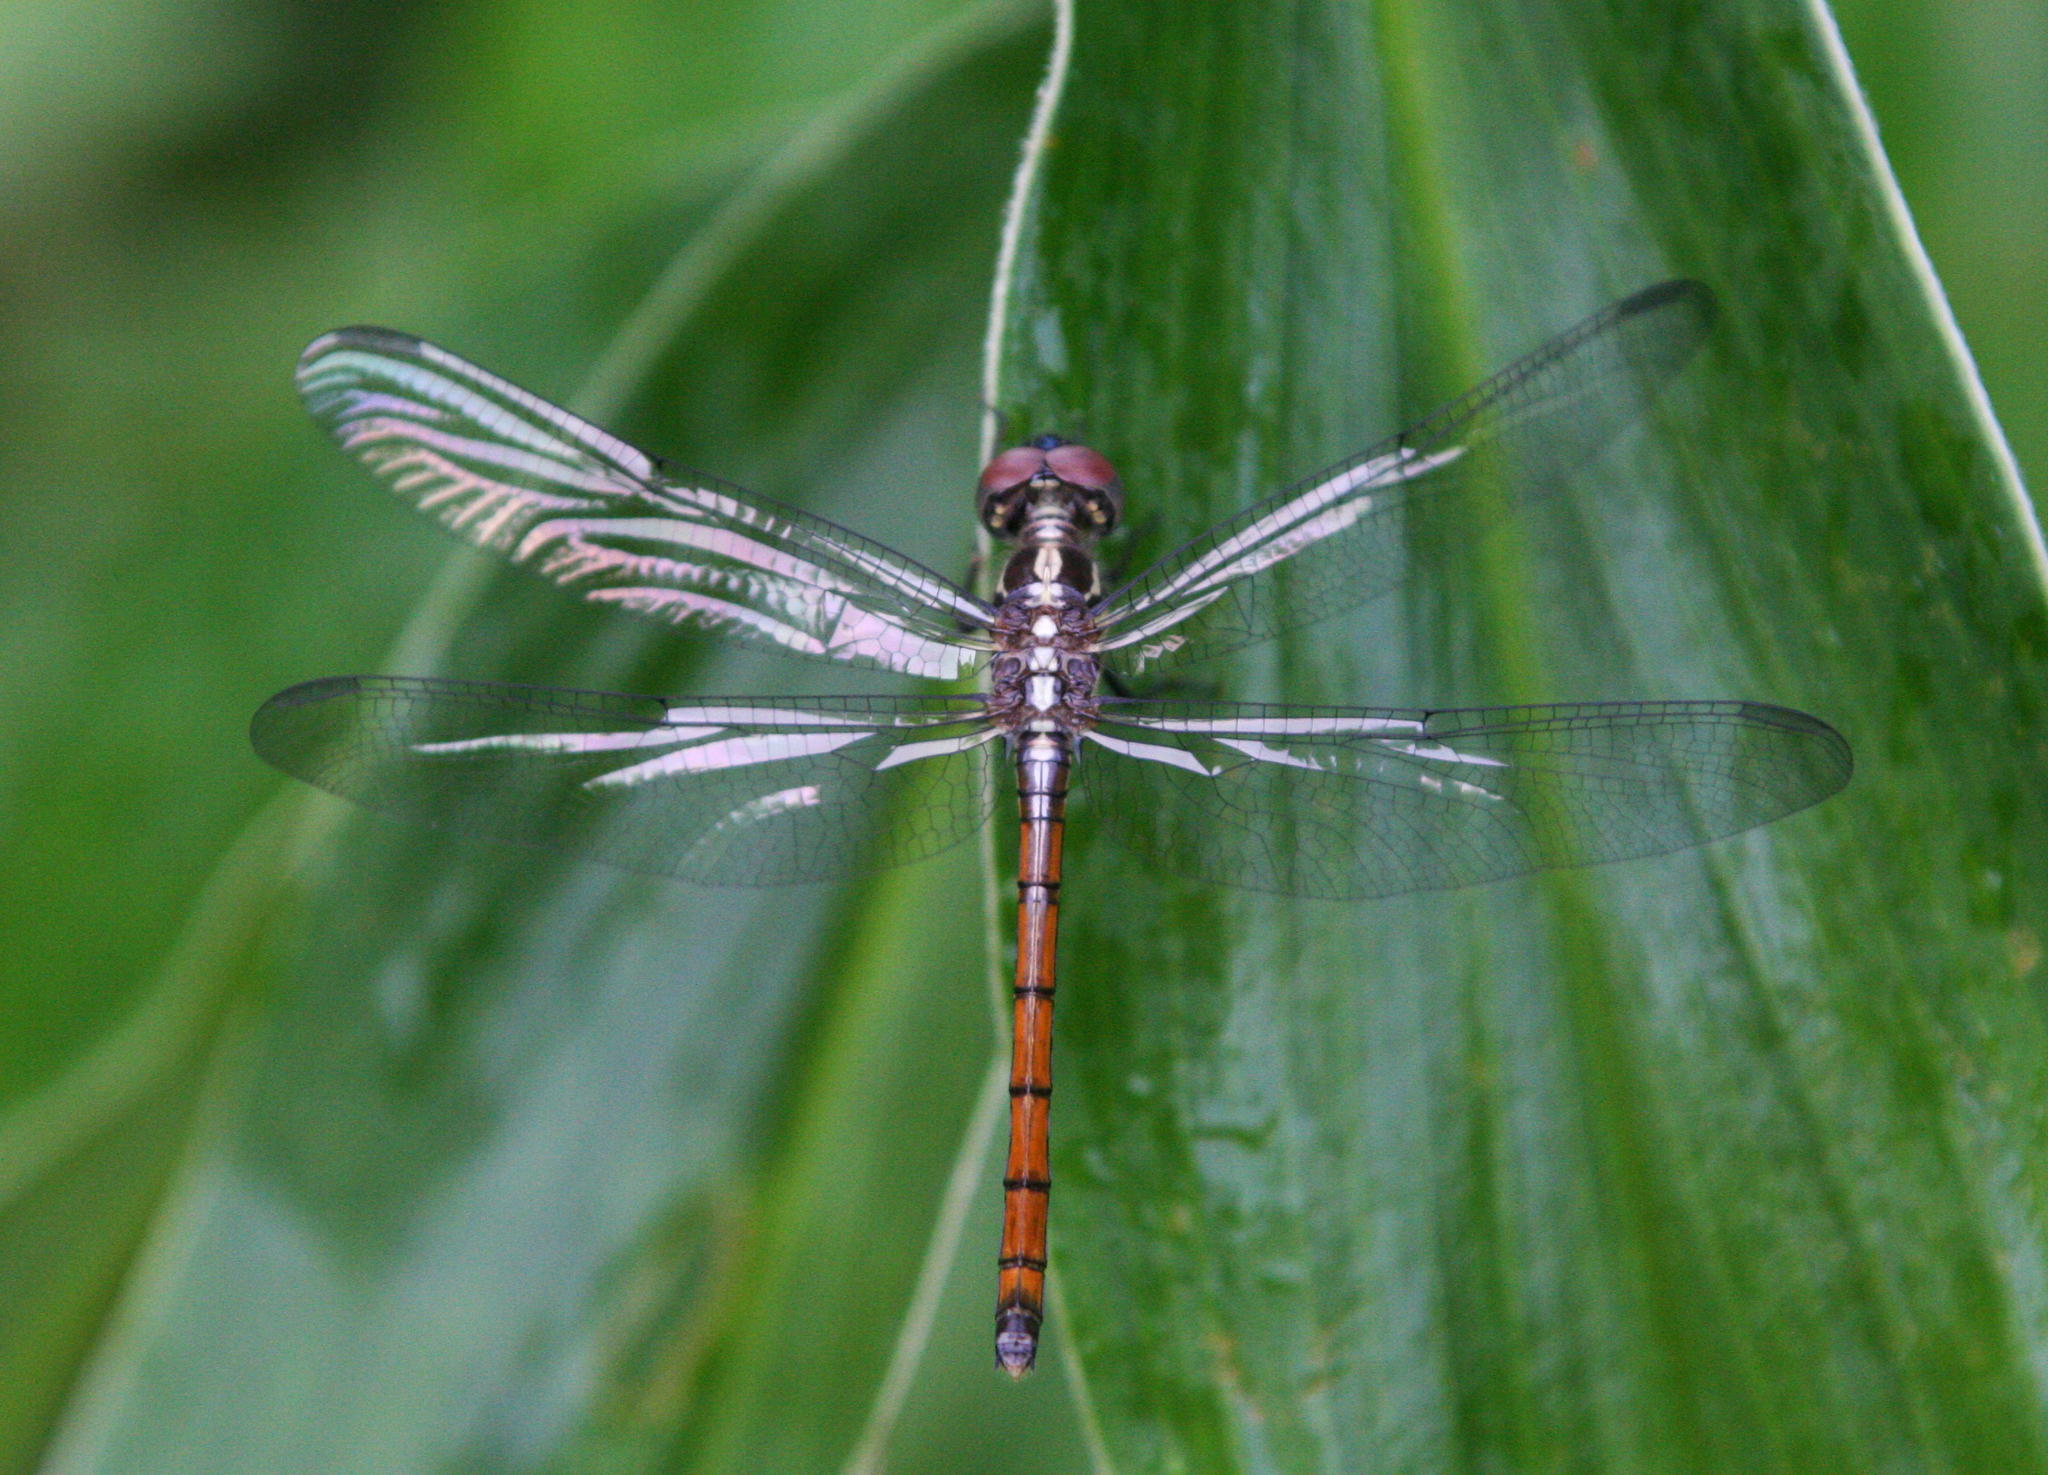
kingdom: Animalia
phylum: Arthropoda
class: Insecta
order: Odonata
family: Libellulidae
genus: Lathrecista
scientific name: Lathrecista asiatica
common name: Scarlet grenadier
